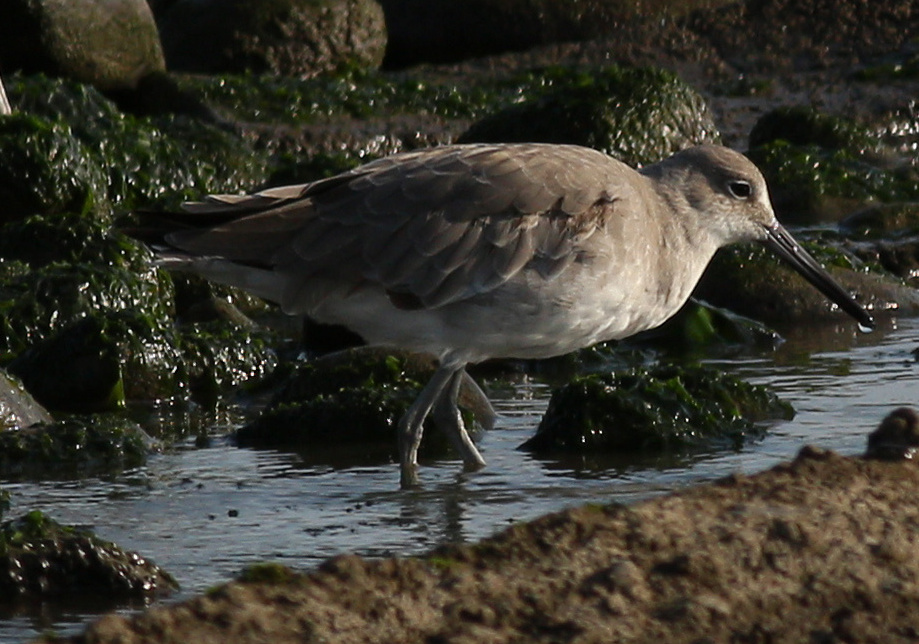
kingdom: Animalia
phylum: Chordata
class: Aves
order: Charadriiformes
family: Scolopacidae
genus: Tringa
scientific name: Tringa semipalmata
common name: Willet
